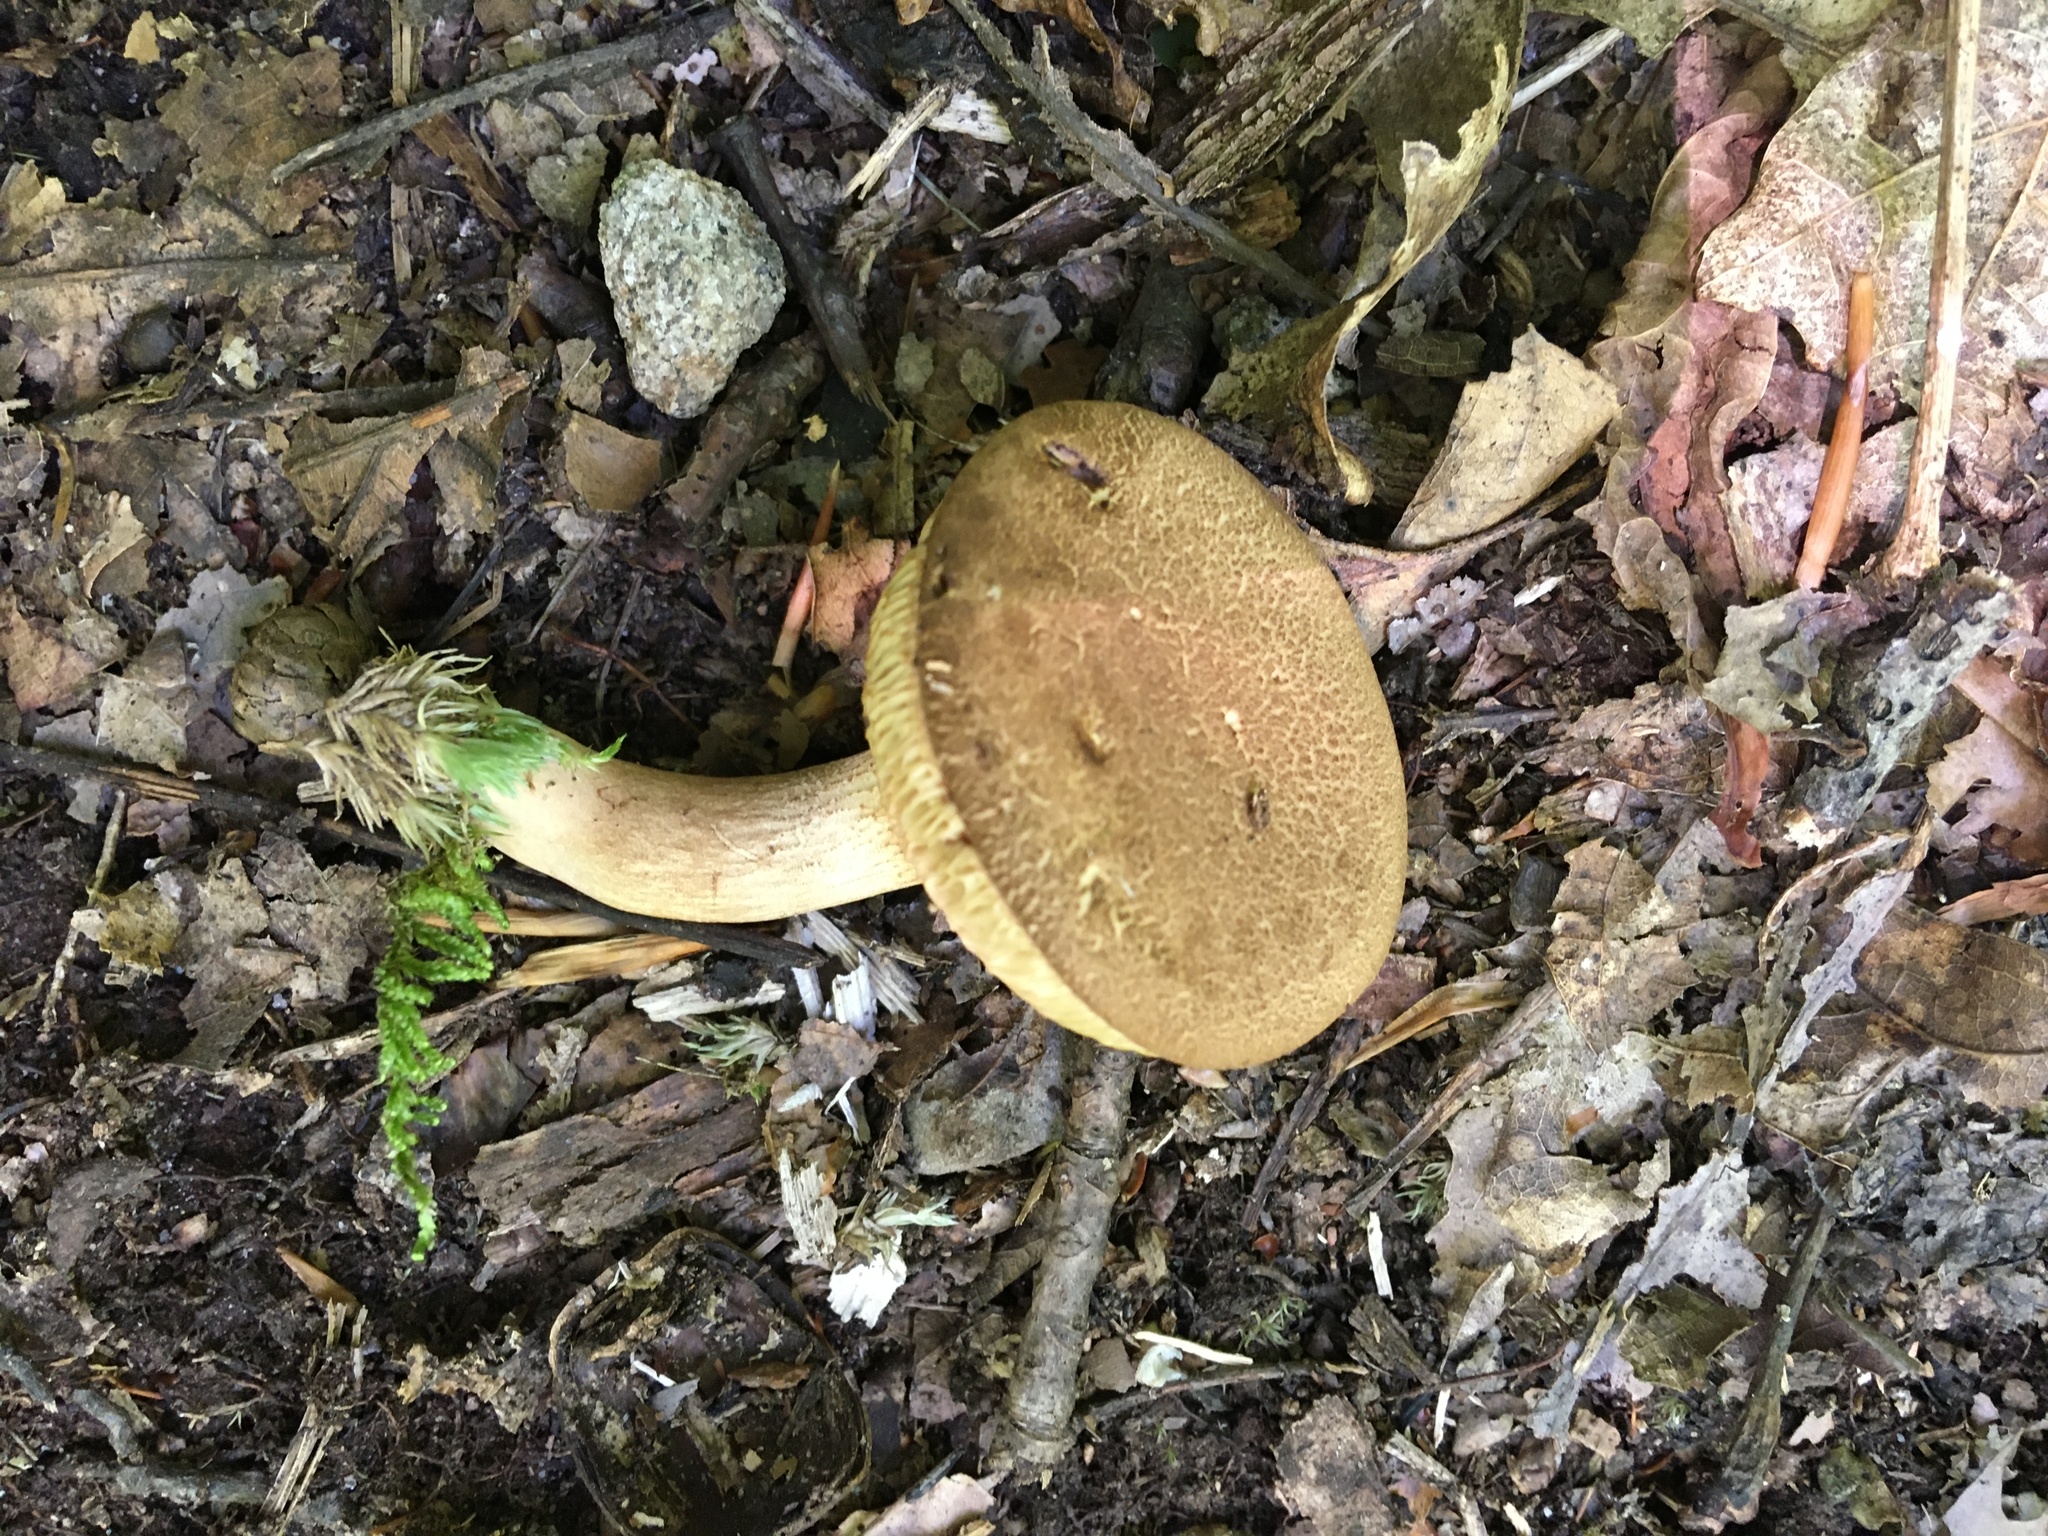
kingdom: Fungi
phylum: Basidiomycota
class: Agaricomycetes
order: Boletales
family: Boletaceae
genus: Bothia
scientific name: Bothia castanella
